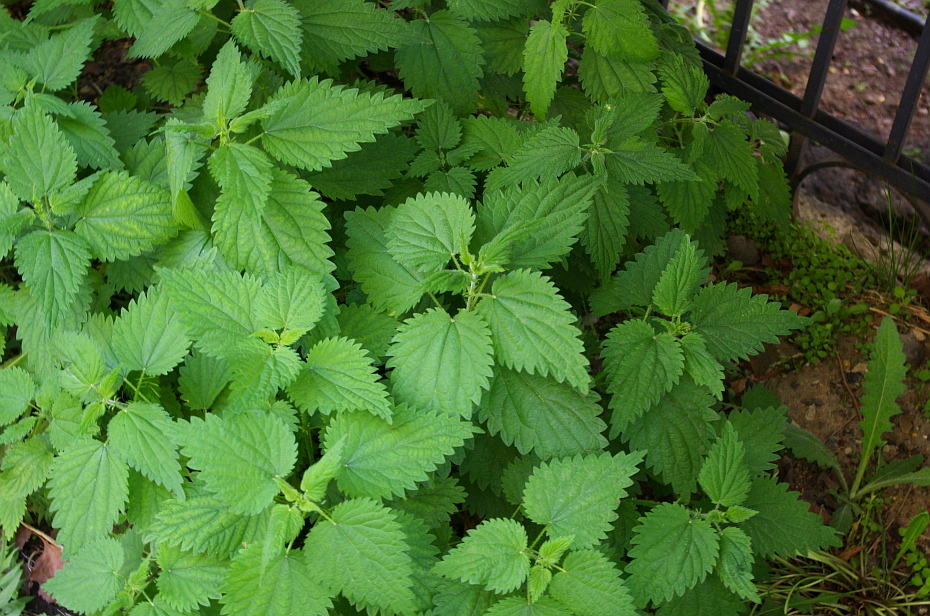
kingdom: Plantae
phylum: Tracheophyta
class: Magnoliopsida
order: Rosales
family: Urticaceae
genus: Urtica
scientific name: Urtica dioica
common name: Common nettle
